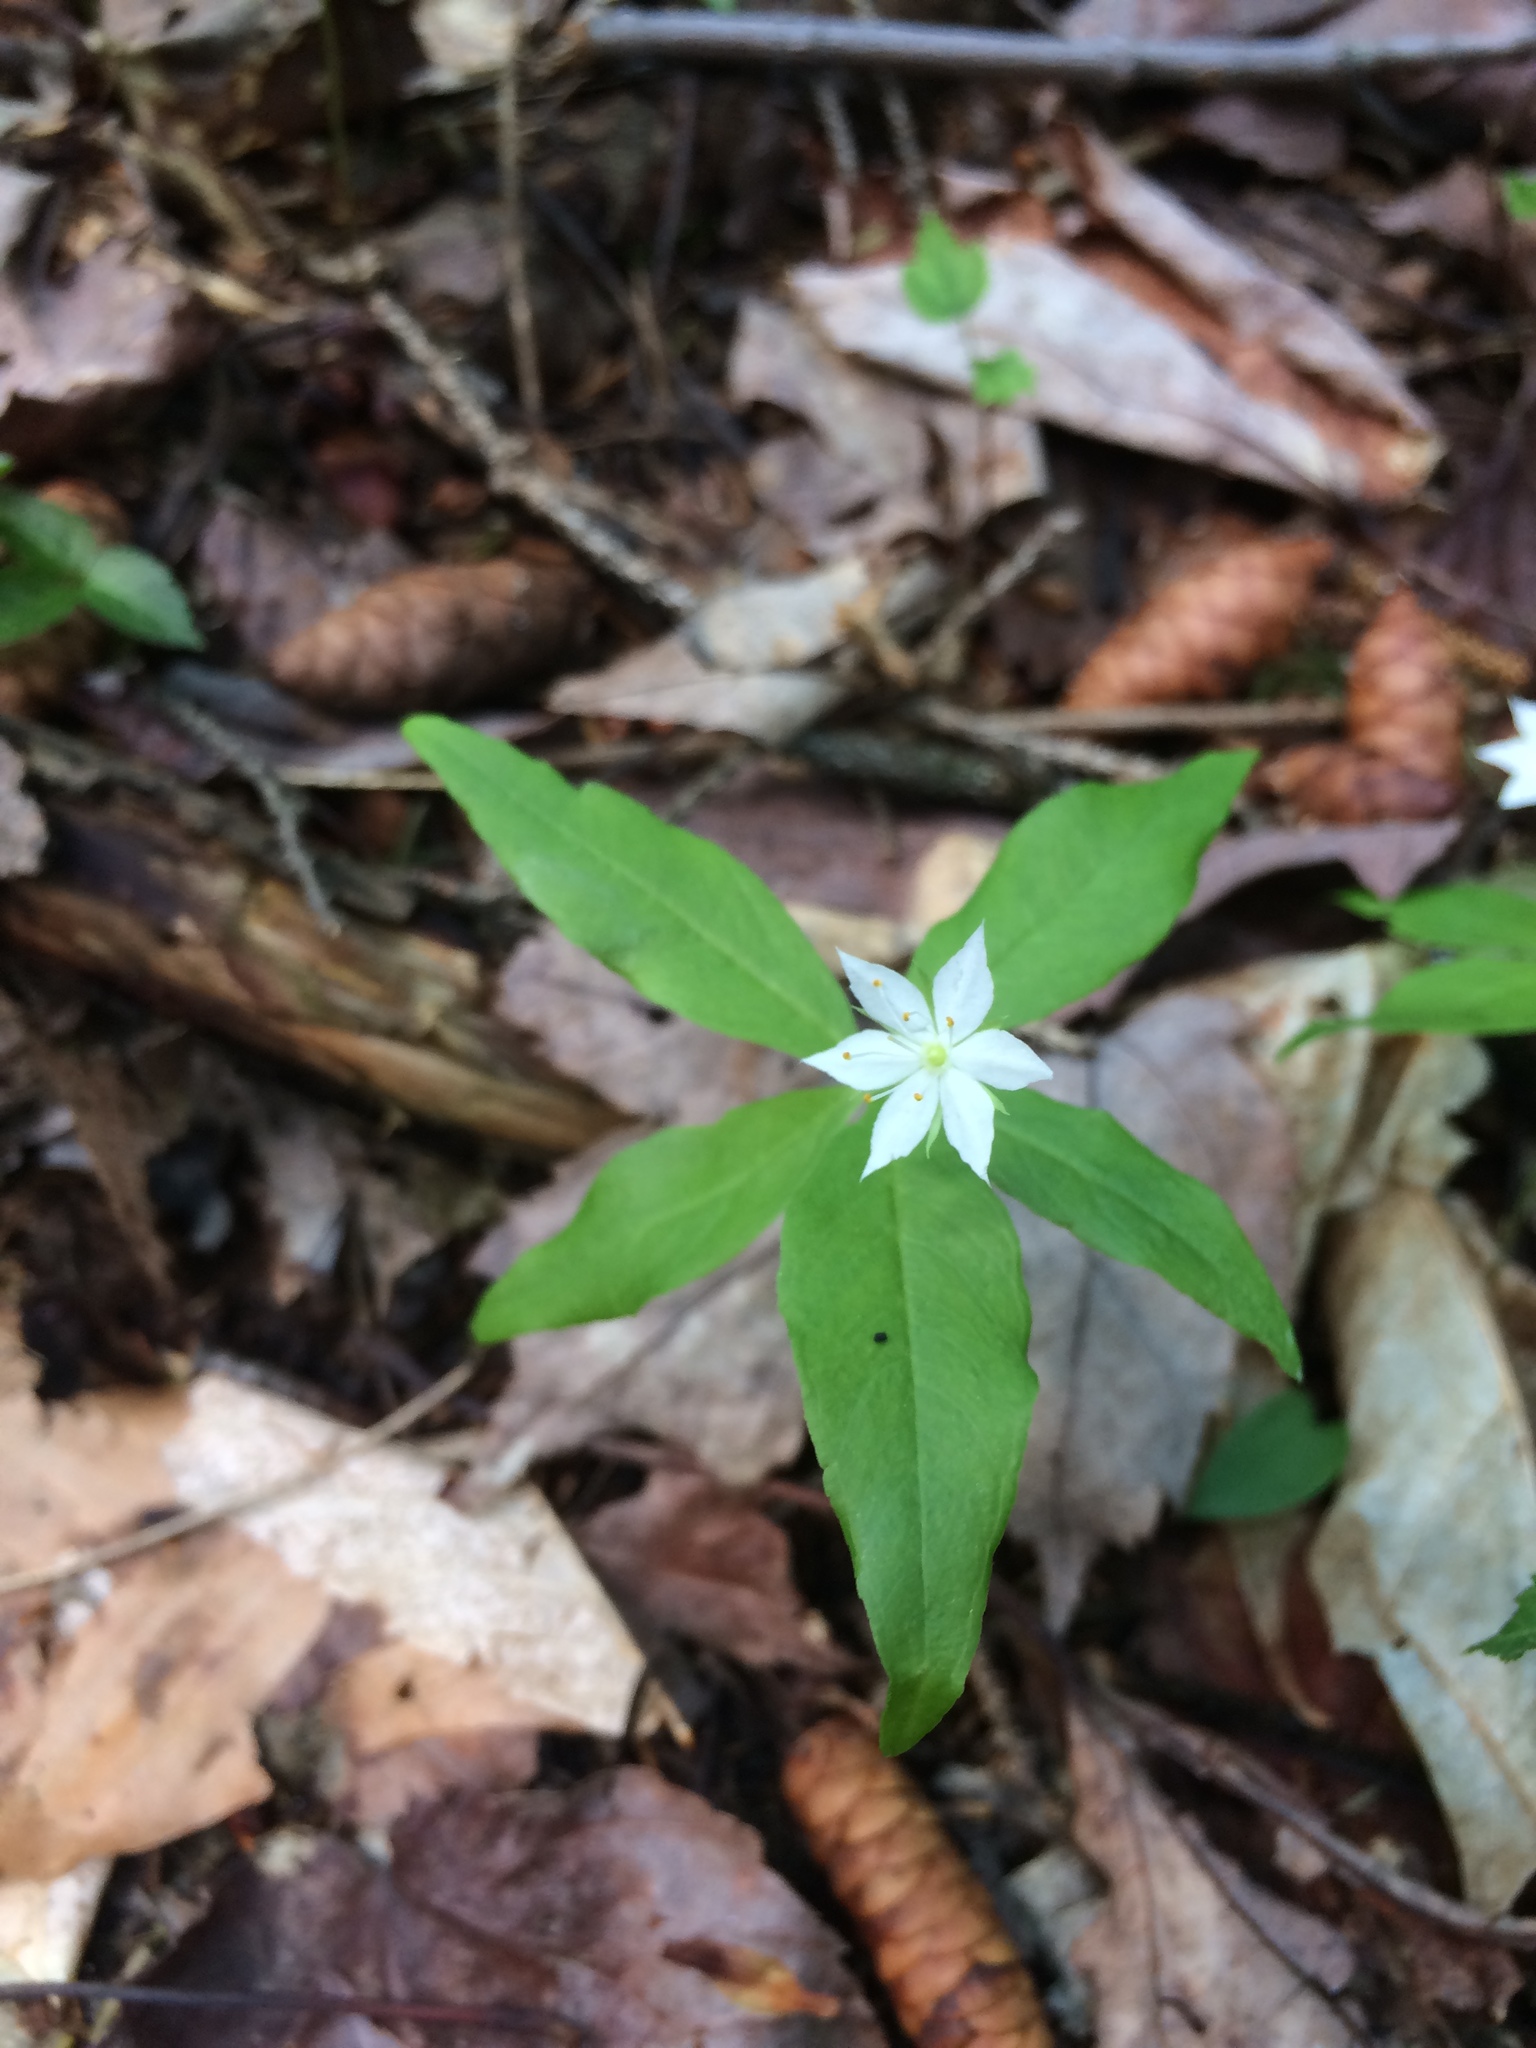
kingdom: Plantae
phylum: Tracheophyta
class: Magnoliopsida
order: Ericales
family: Primulaceae
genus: Lysimachia
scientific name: Lysimachia borealis
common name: American starflower
